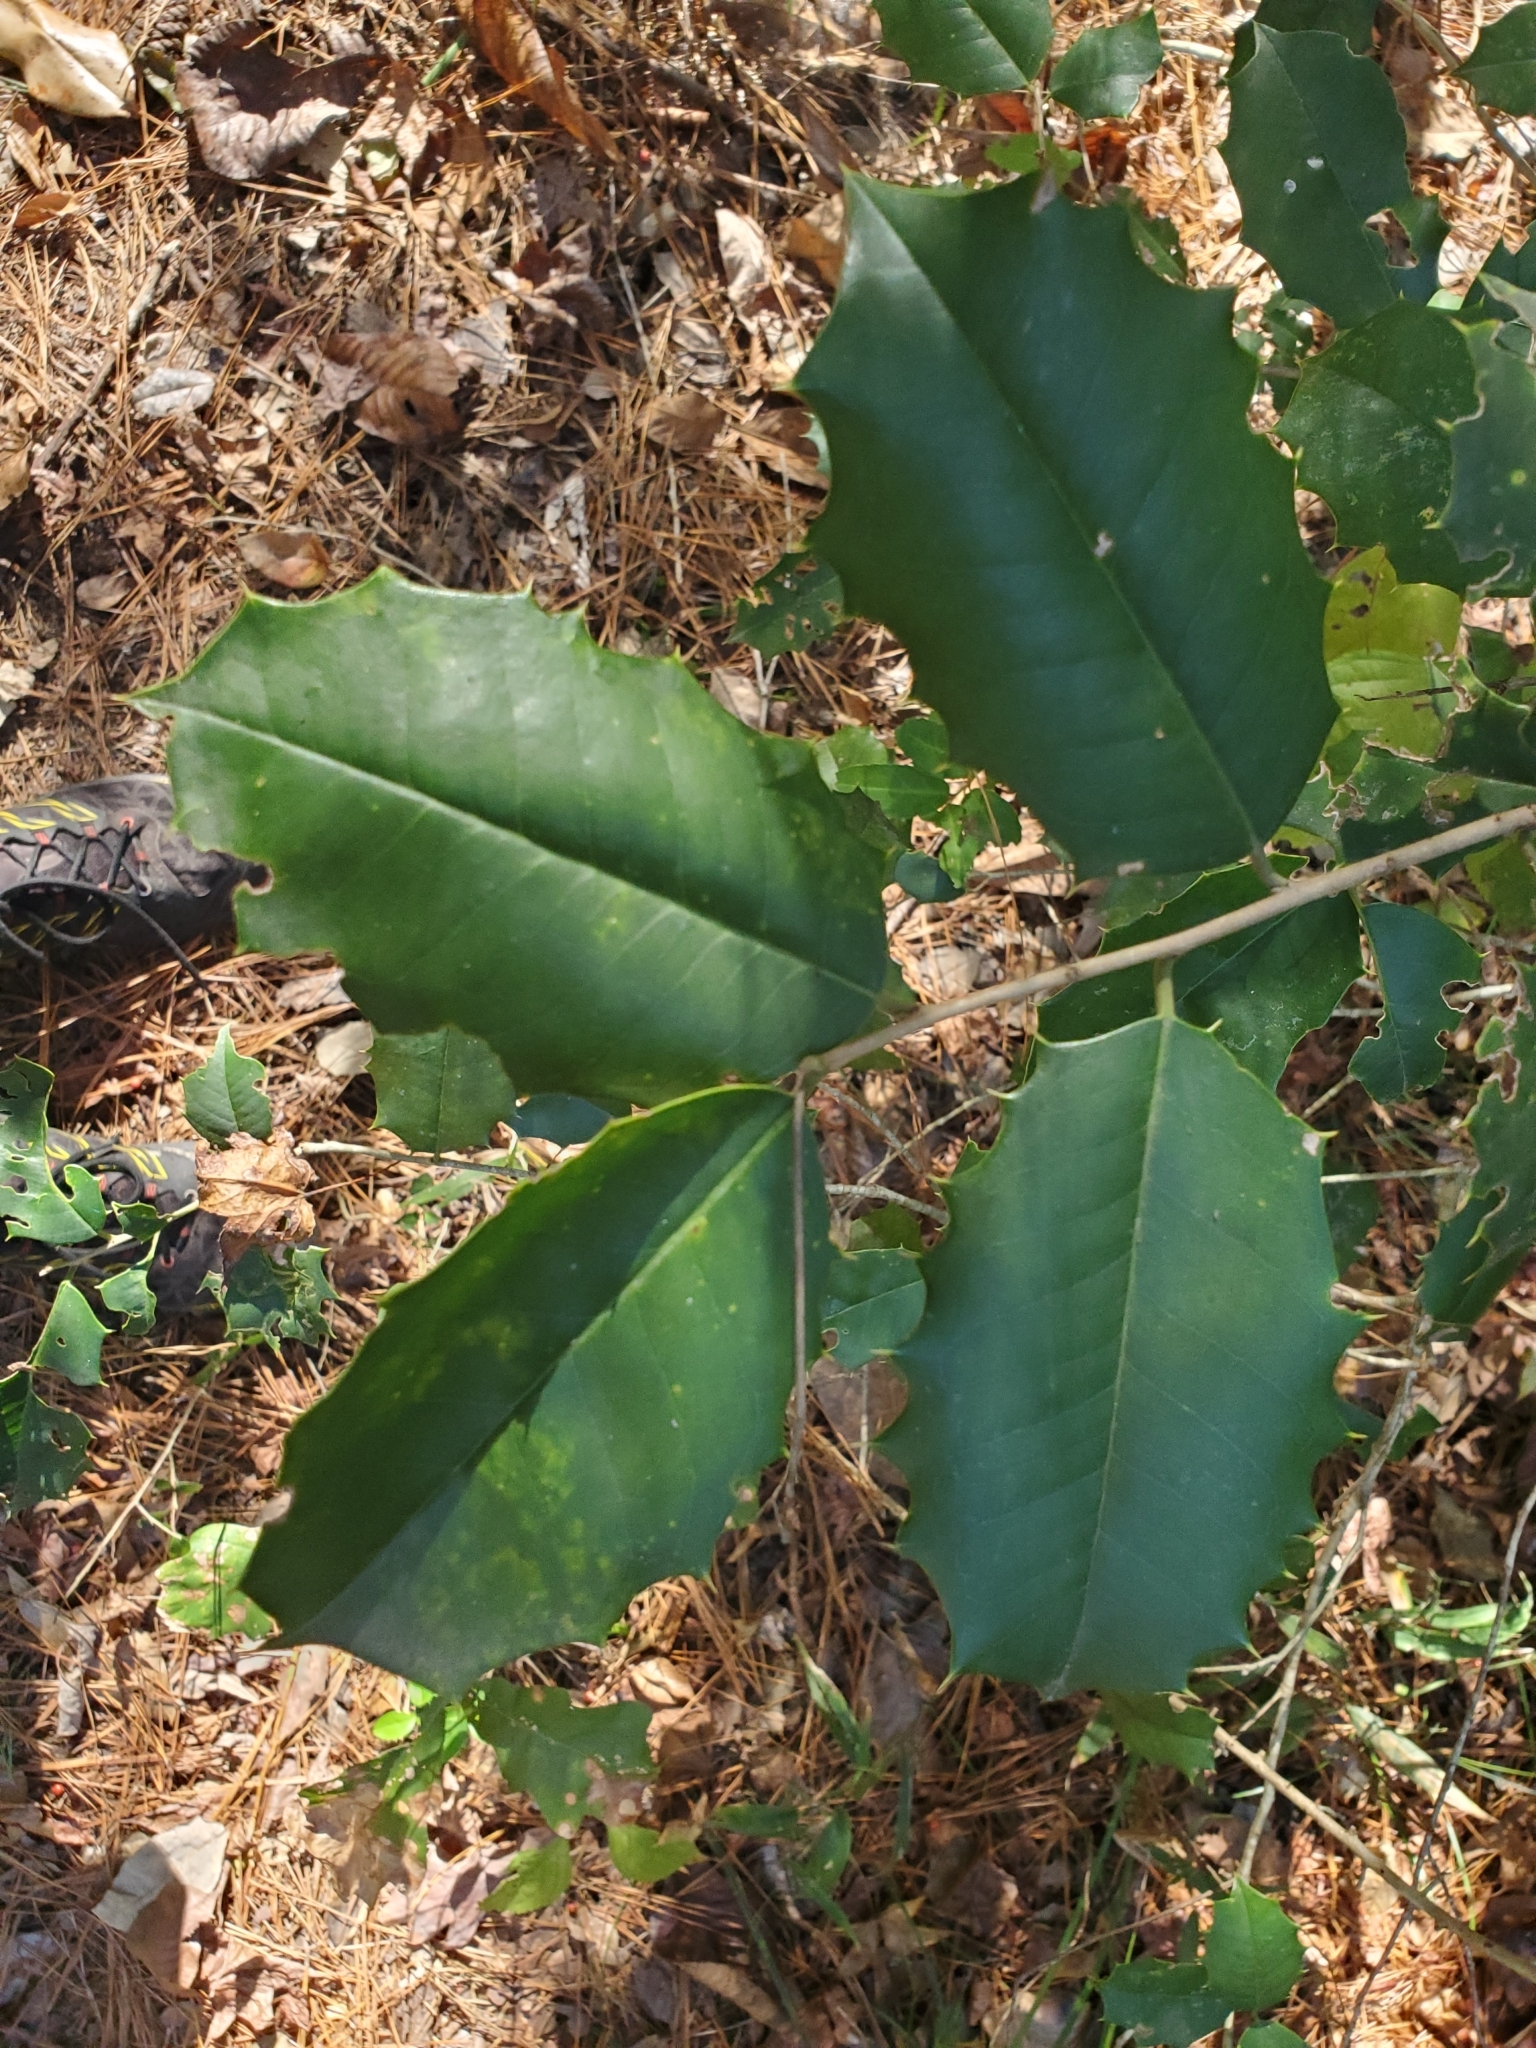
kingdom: Plantae
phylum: Tracheophyta
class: Magnoliopsida
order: Aquifoliales
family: Aquifoliaceae
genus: Ilex
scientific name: Ilex opaca
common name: American holly
